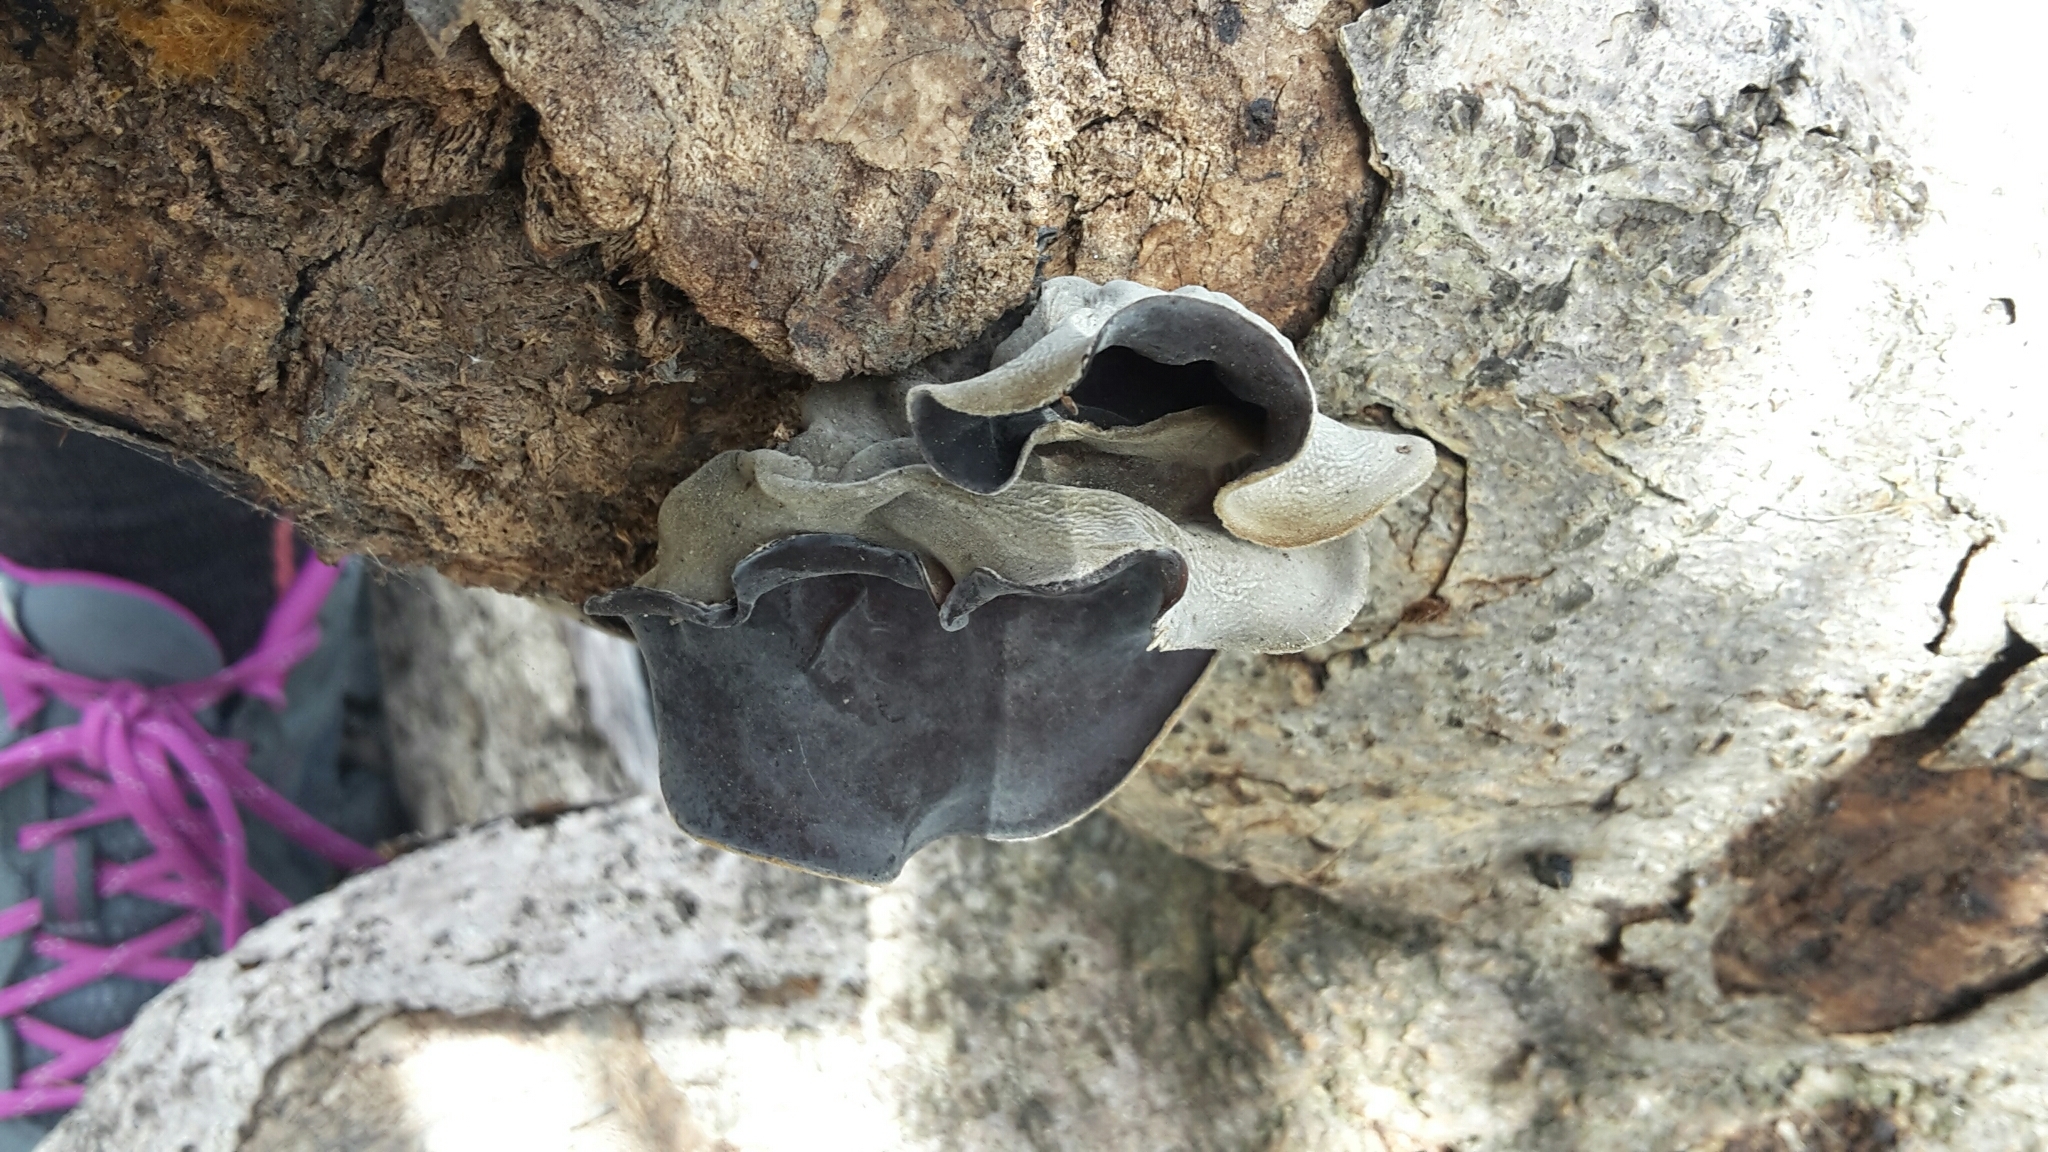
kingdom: Fungi
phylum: Basidiomycota
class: Agaricomycetes
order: Auriculariales
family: Auriculariaceae
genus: Auricularia
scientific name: Auricularia cornea
